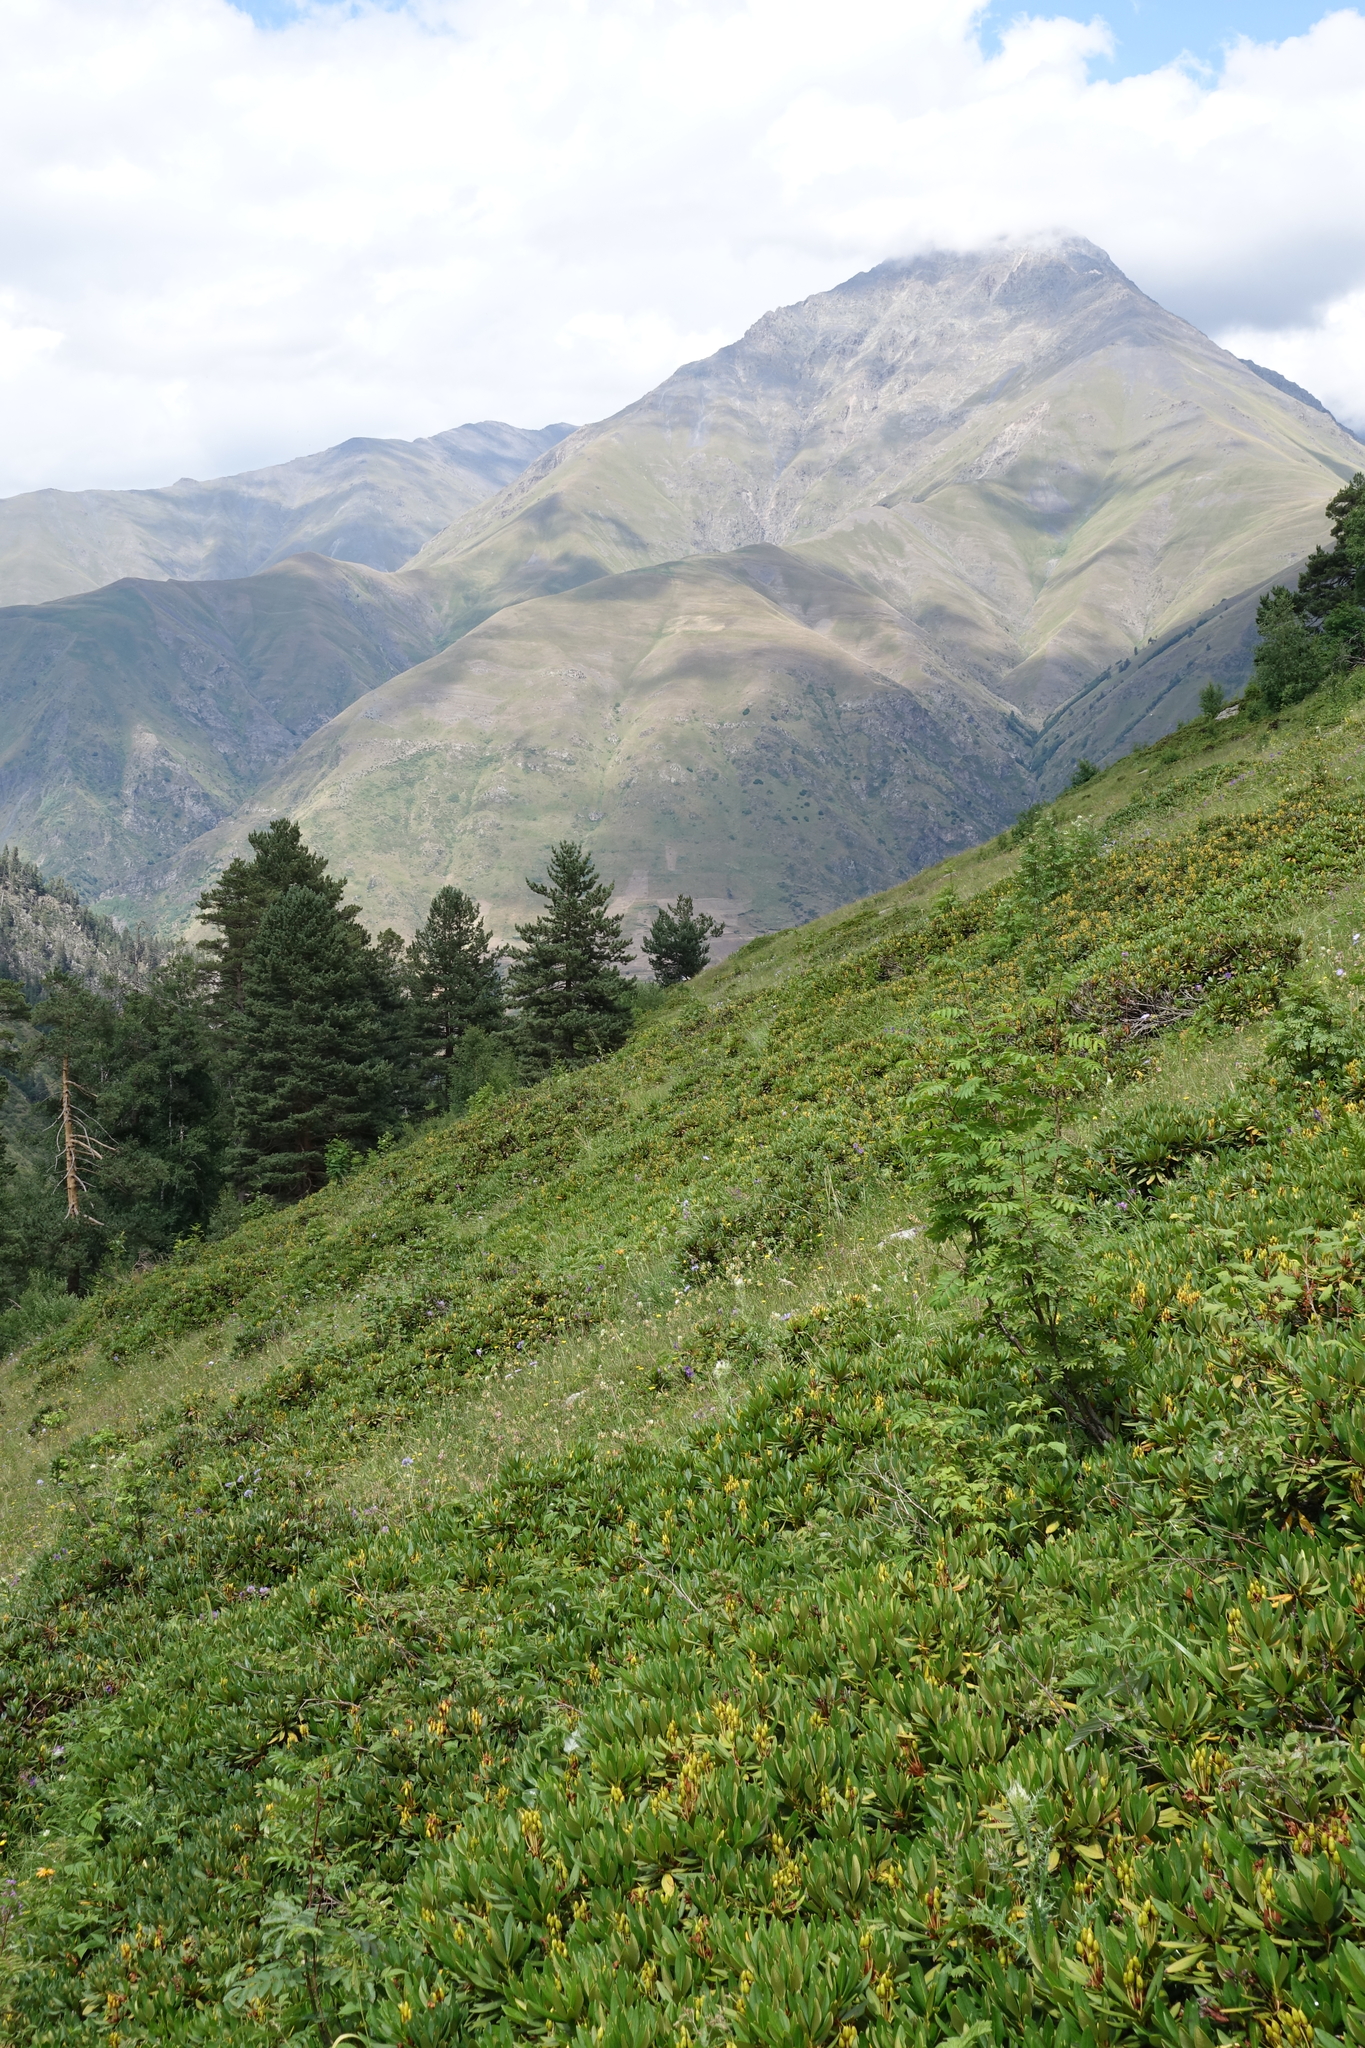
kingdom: Plantae
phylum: Tracheophyta
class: Magnoliopsida
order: Ericales
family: Ericaceae
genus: Rhododendron
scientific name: Rhododendron caucasicum
